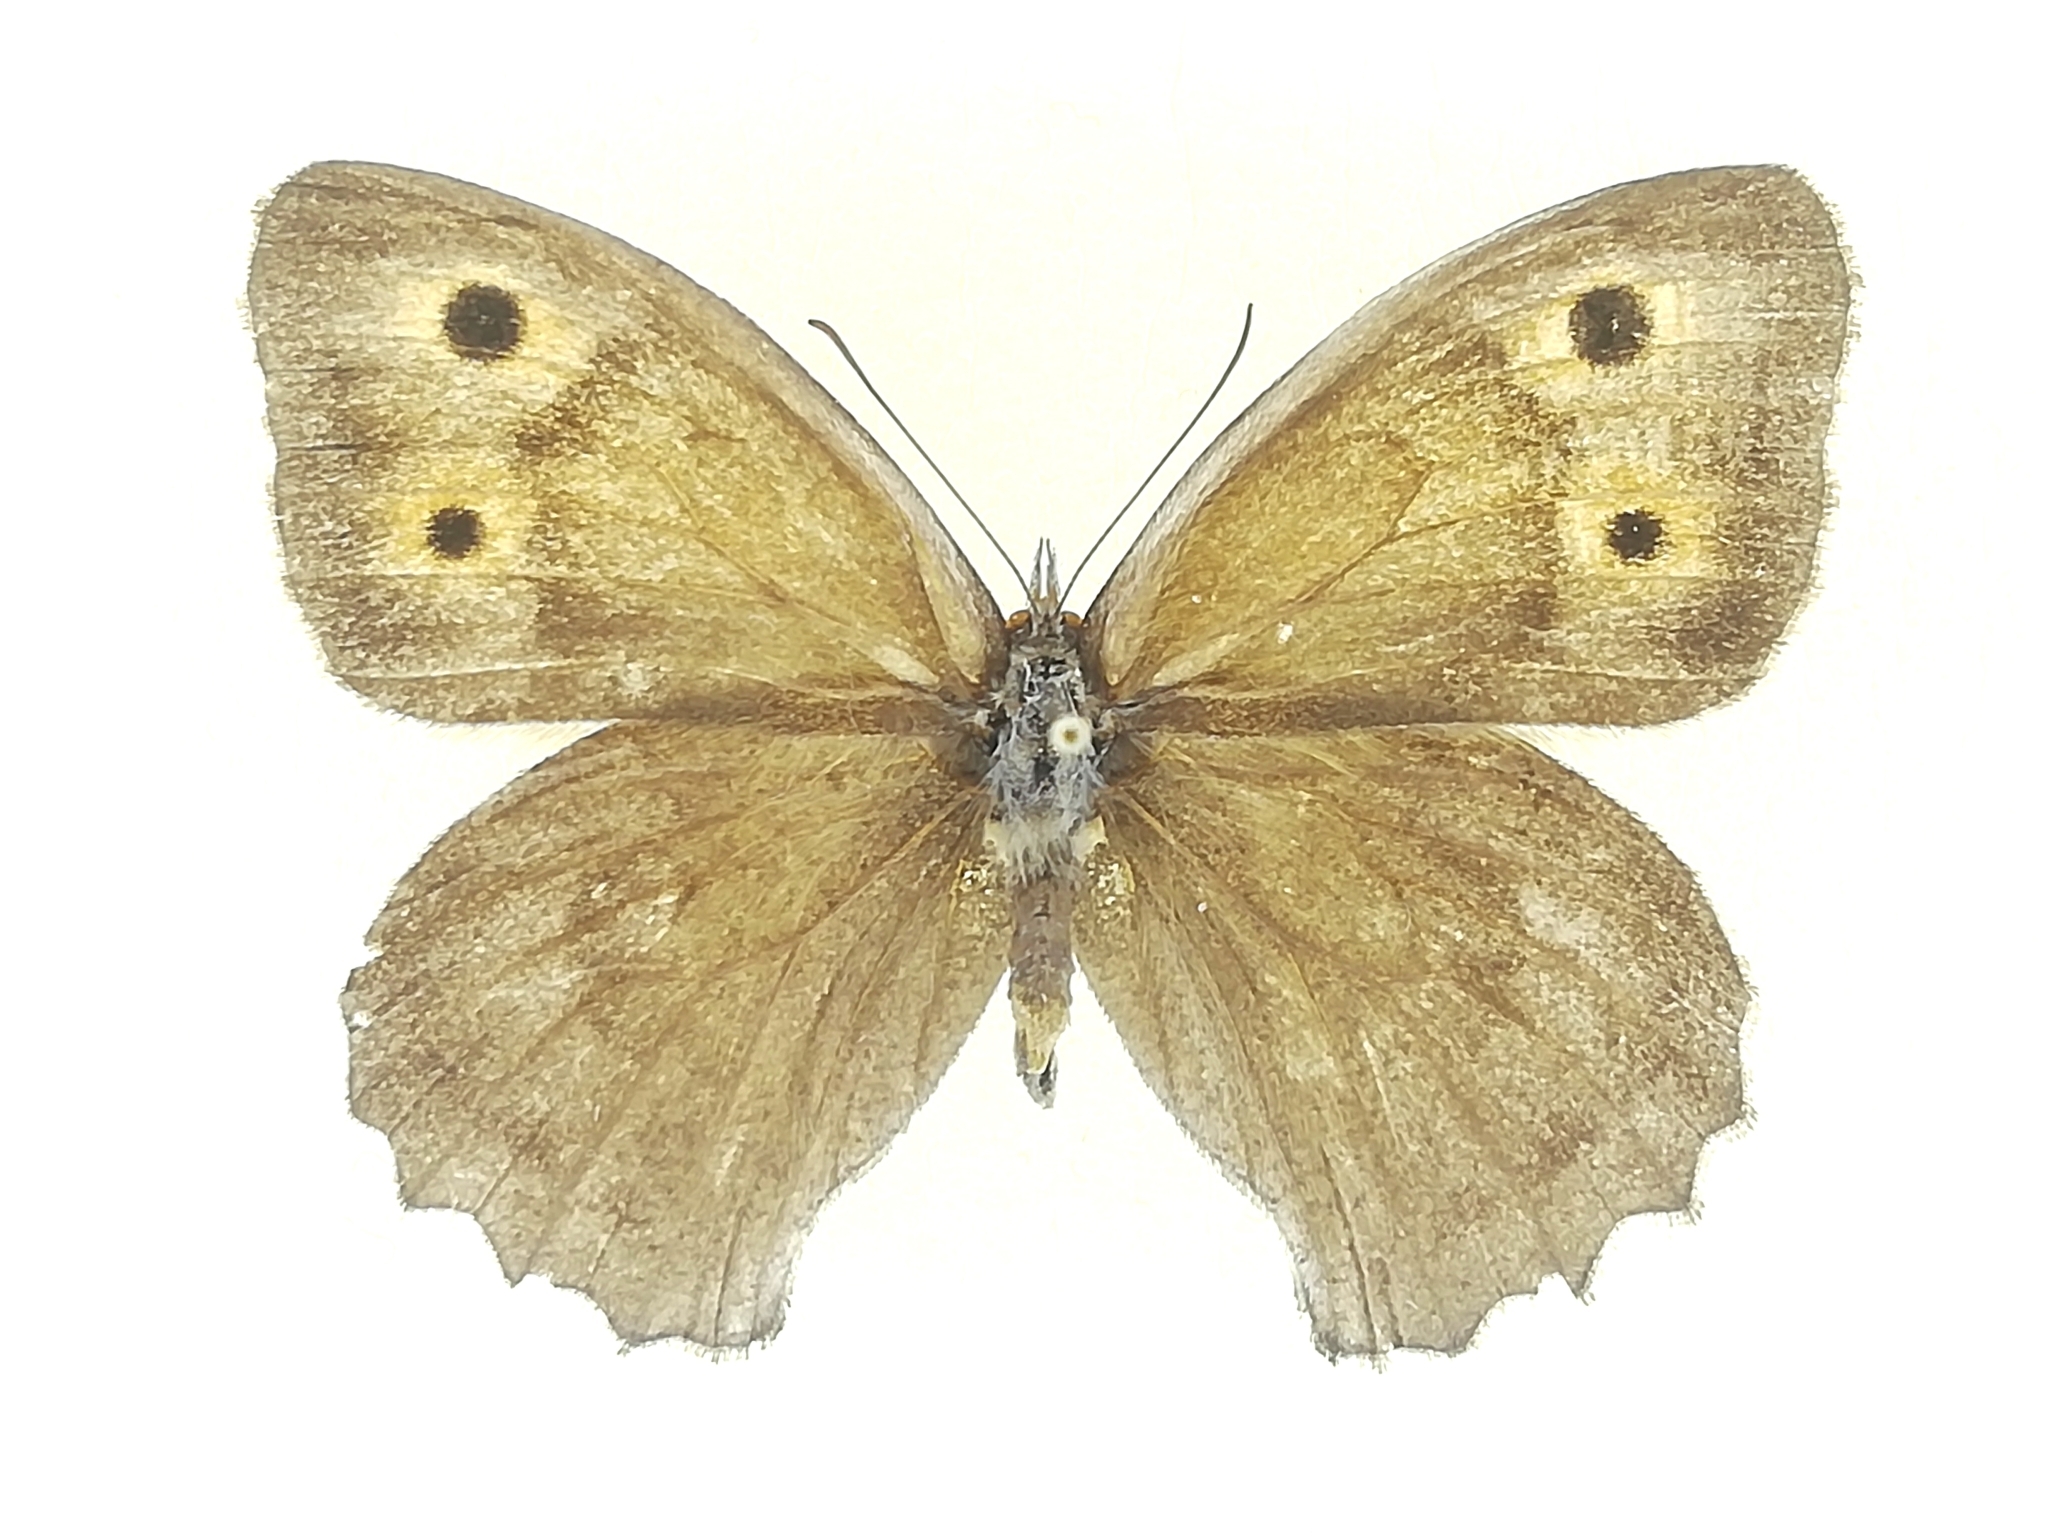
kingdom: Animalia
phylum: Arthropoda
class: Insecta
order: Lepidoptera
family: Nymphalidae
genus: Hyponephele
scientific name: Hyponephele lupinus
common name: Oriental meadow brown
